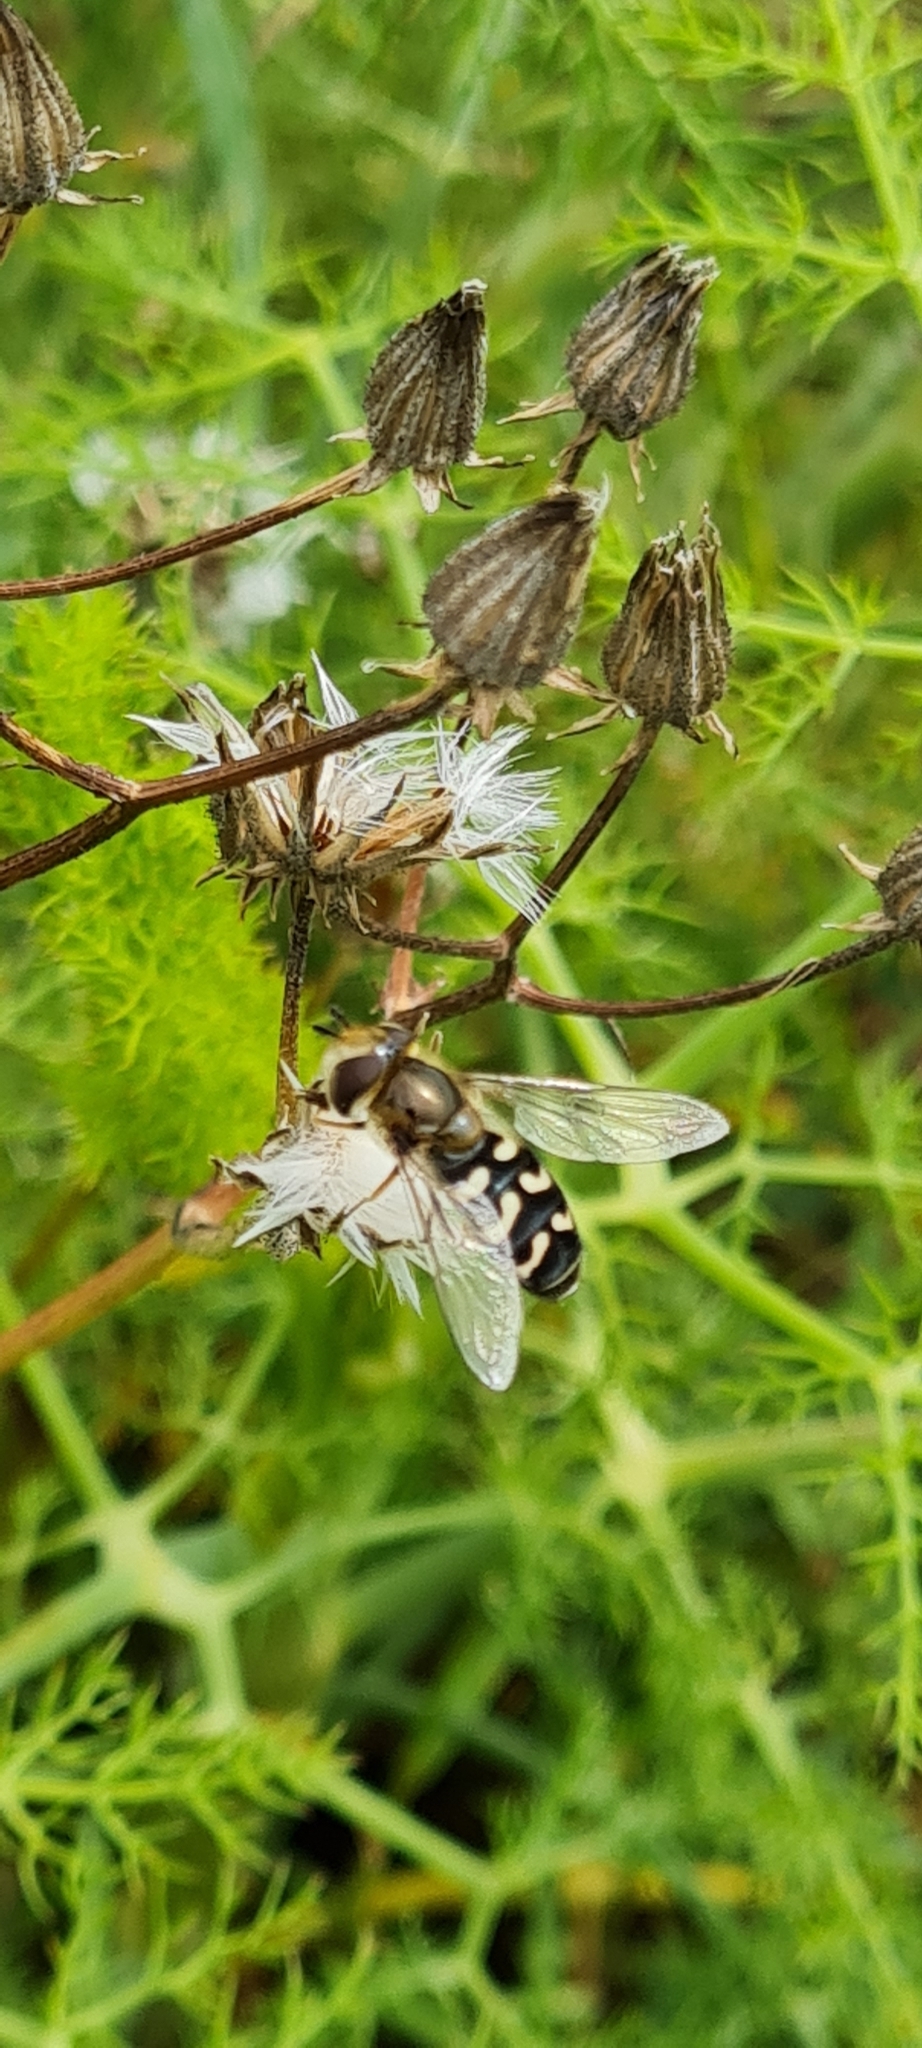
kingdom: Animalia
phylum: Arthropoda
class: Insecta
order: Diptera
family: Syrphidae
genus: Scaeva
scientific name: Scaeva pyrastri
